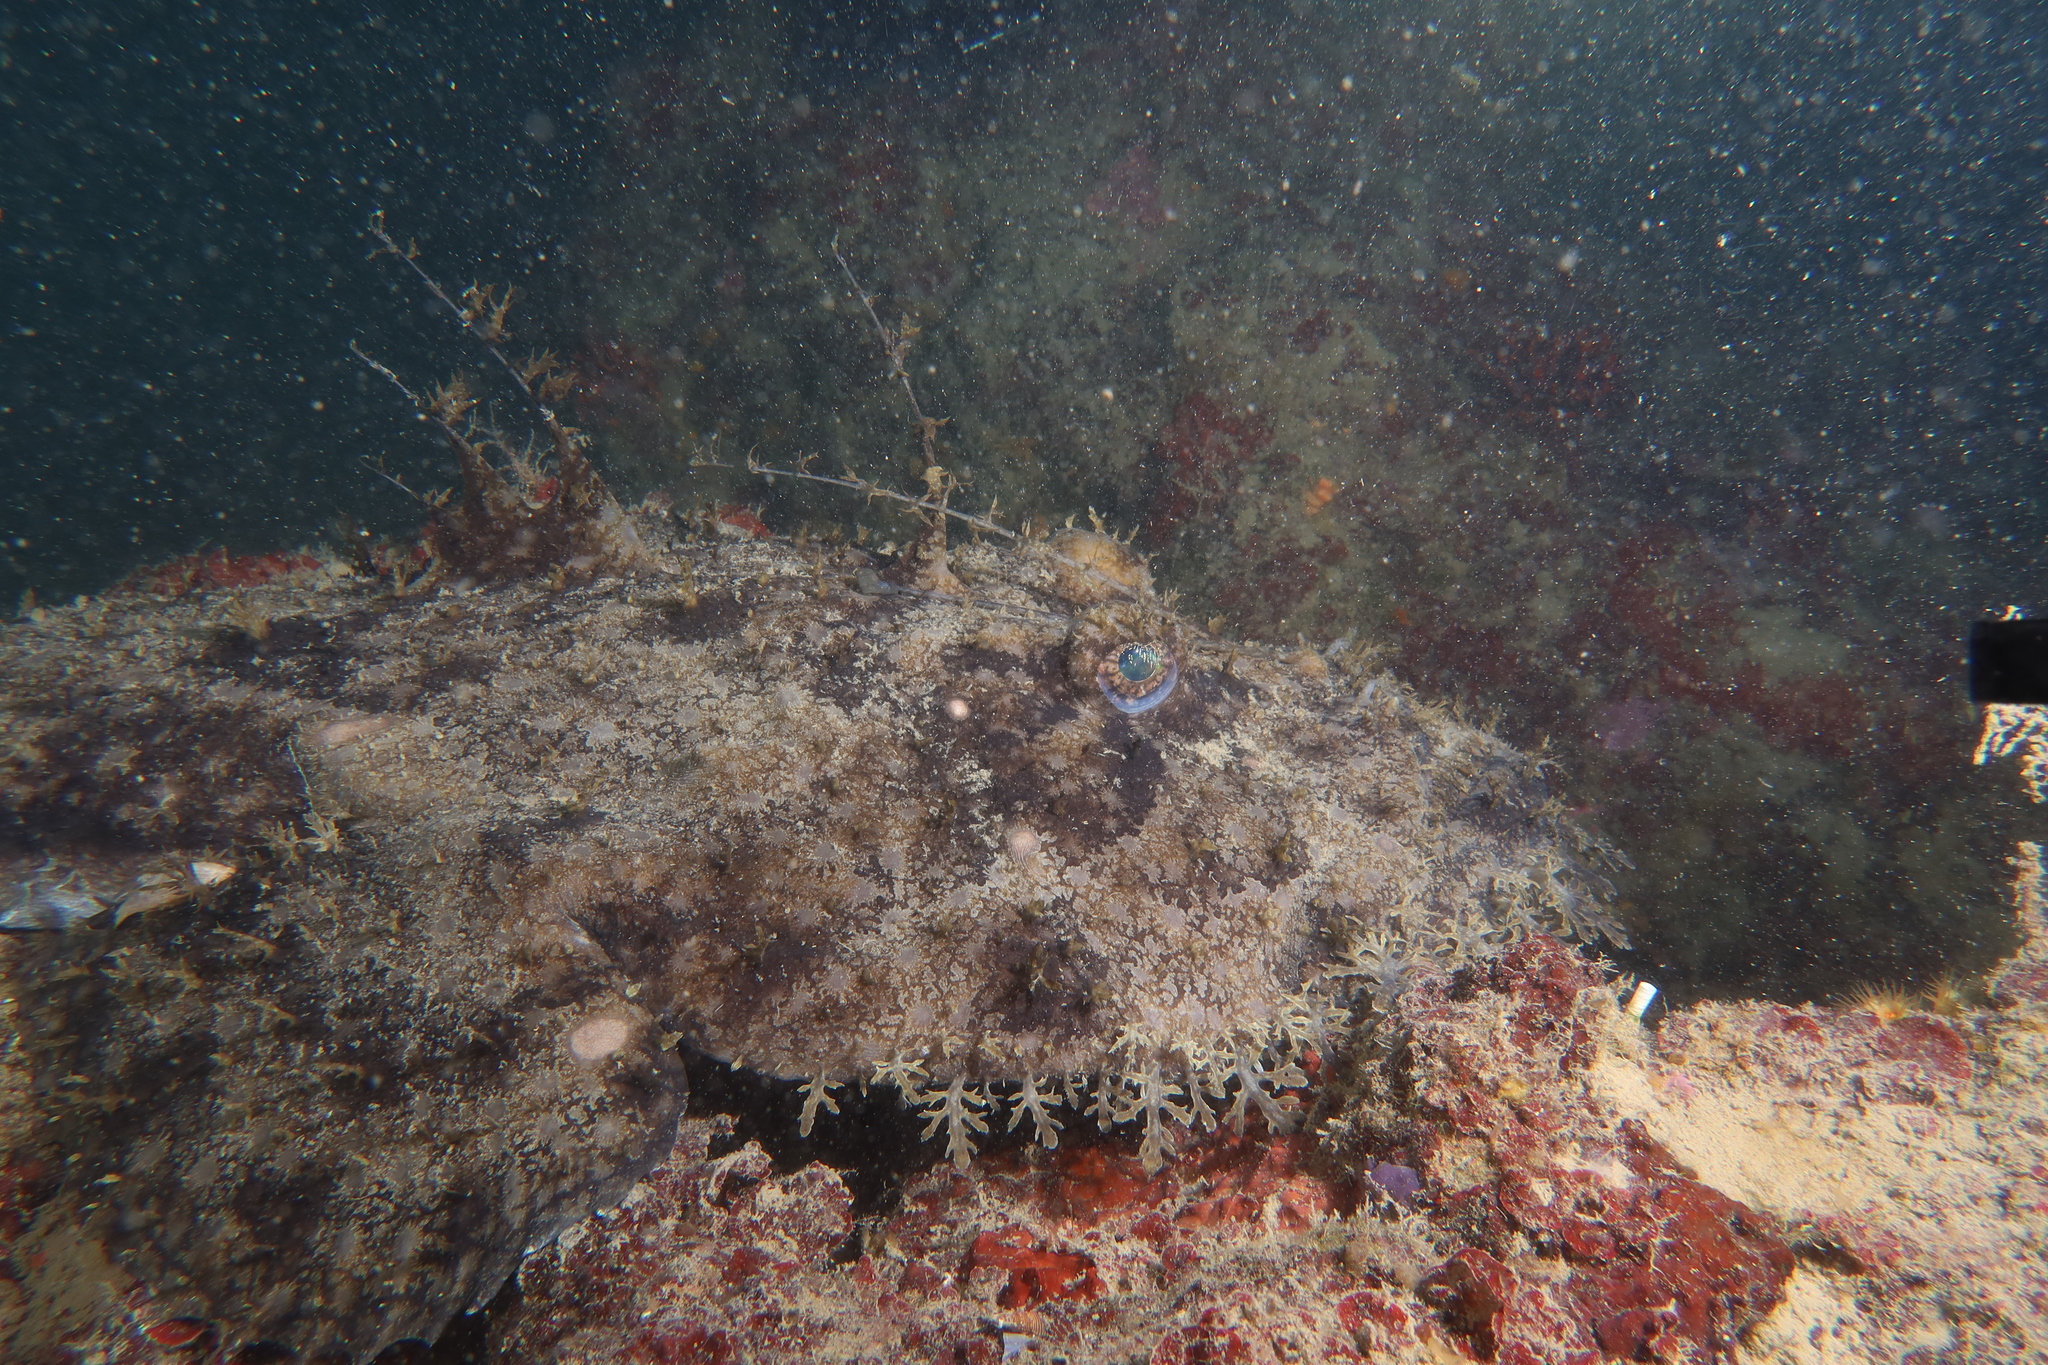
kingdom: Animalia
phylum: Chordata
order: Lophiiformes
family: Lophiidae
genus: Lophius
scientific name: Lophius piscatorius
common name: Angler
